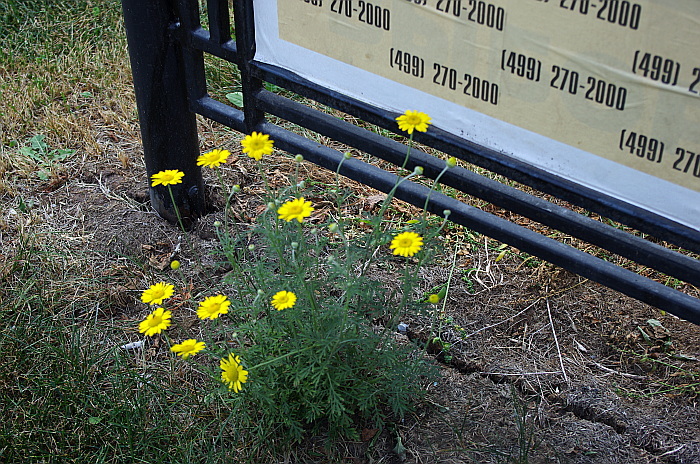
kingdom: Plantae
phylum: Tracheophyta
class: Magnoliopsida
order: Asterales
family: Asteraceae
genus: Cota
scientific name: Cota tinctoria
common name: Golden chamomile
